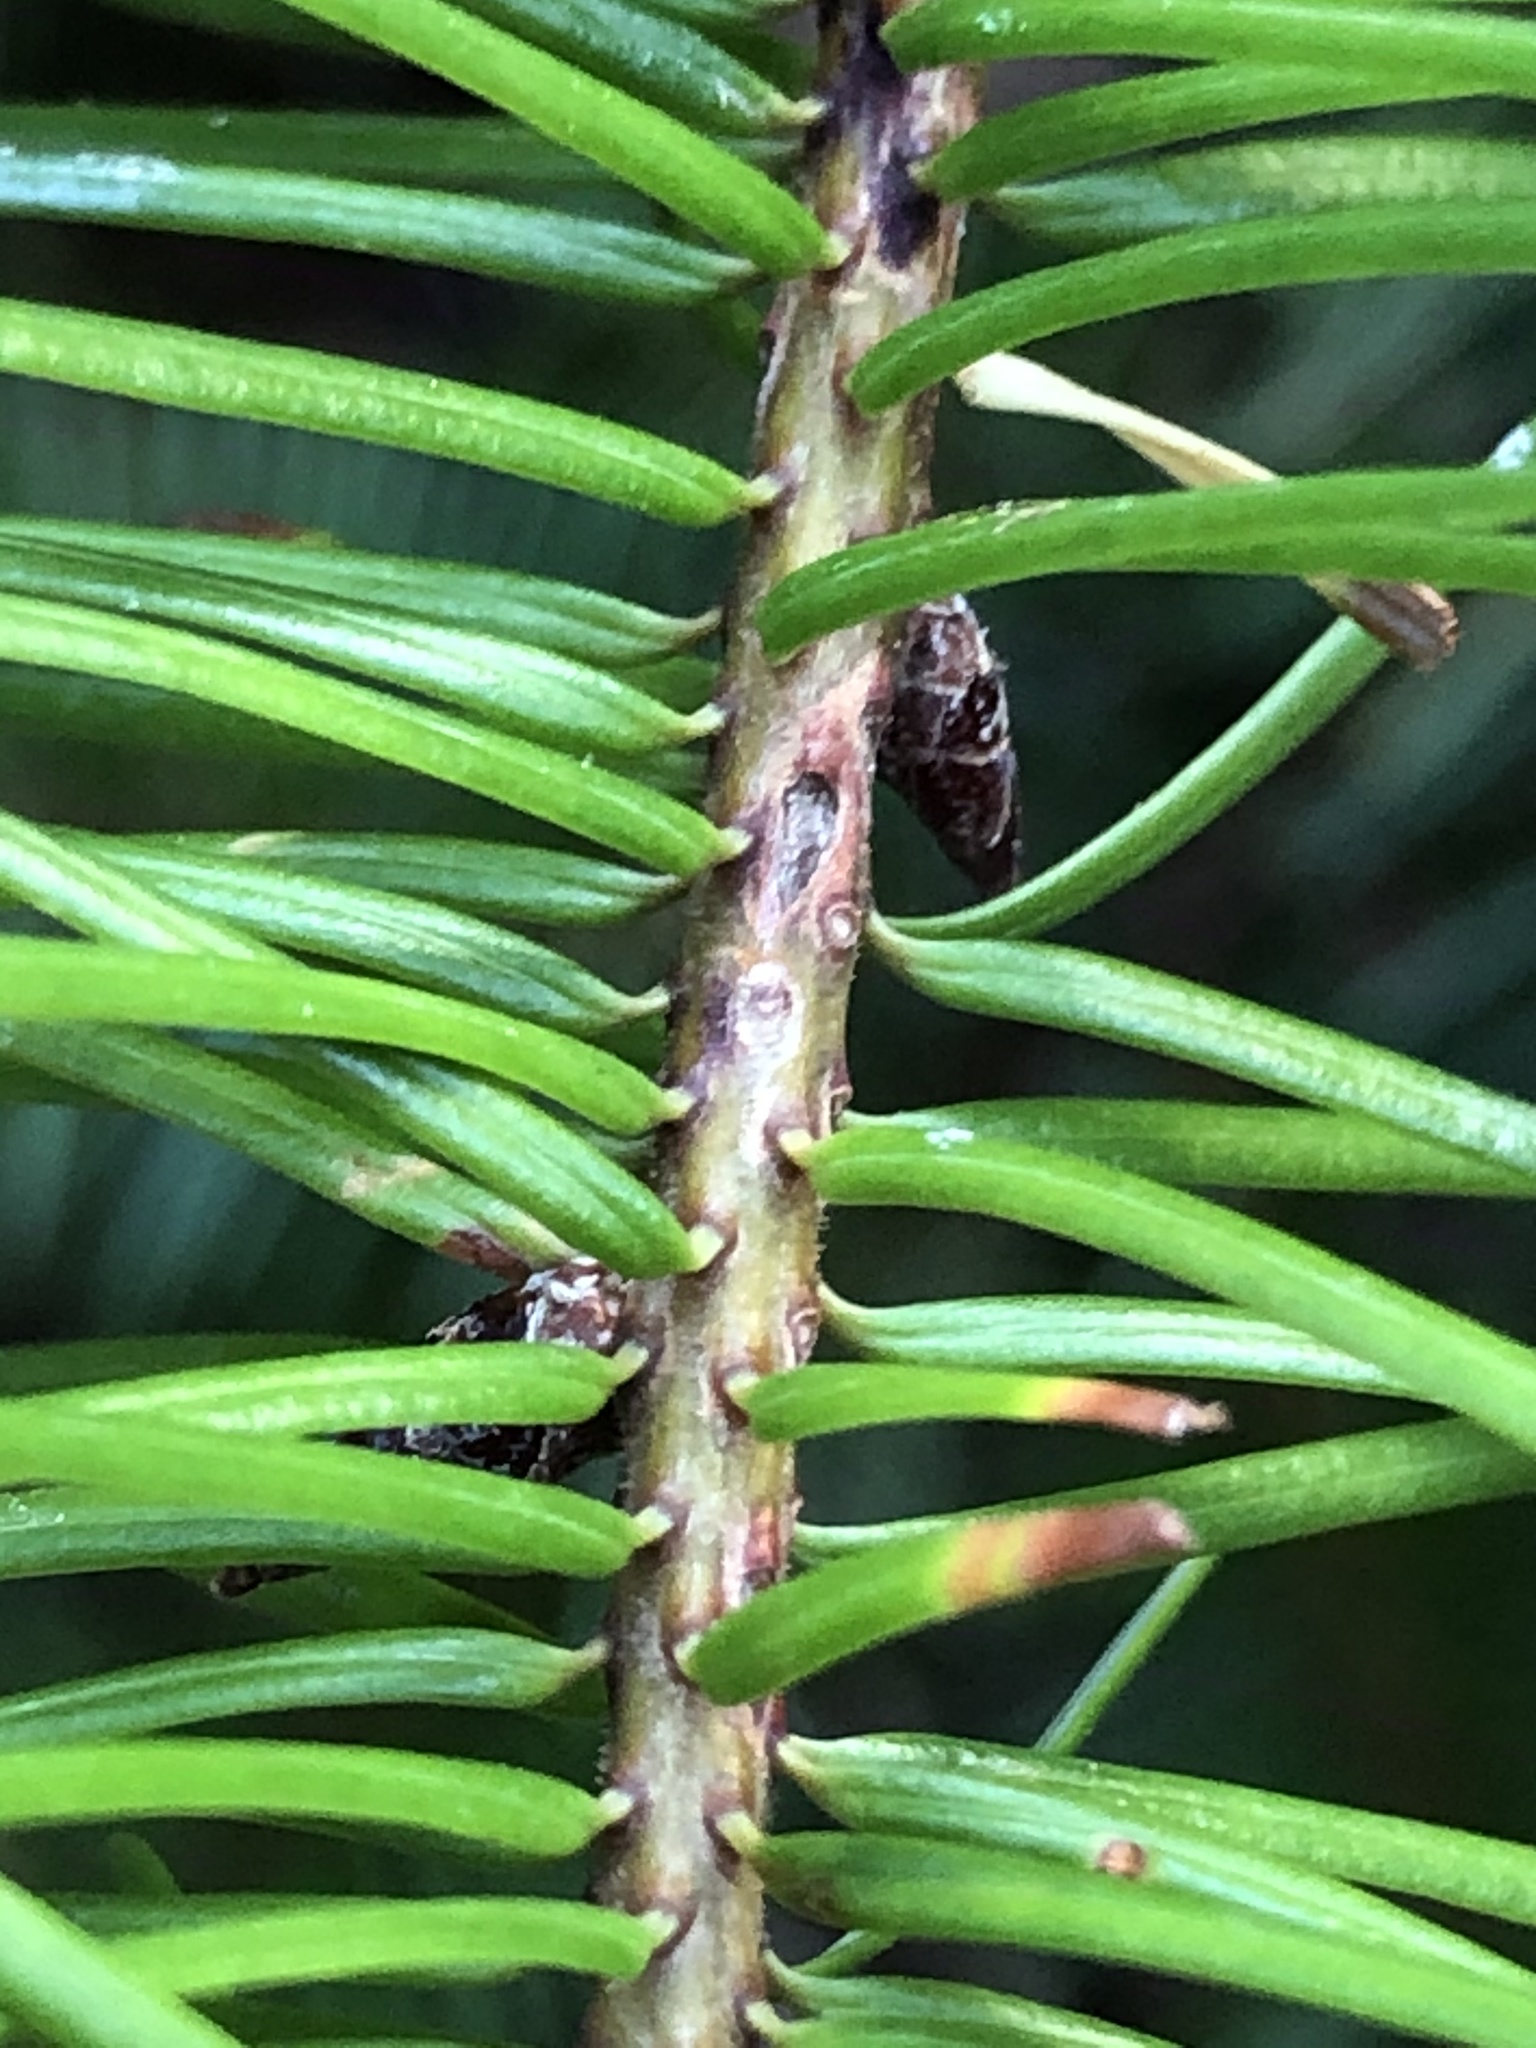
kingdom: Plantae
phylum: Tracheophyta
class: Pinopsida
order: Pinales
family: Pinaceae
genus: Pseudotsuga
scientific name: Pseudotsuga menziesii
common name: Douglas fir
